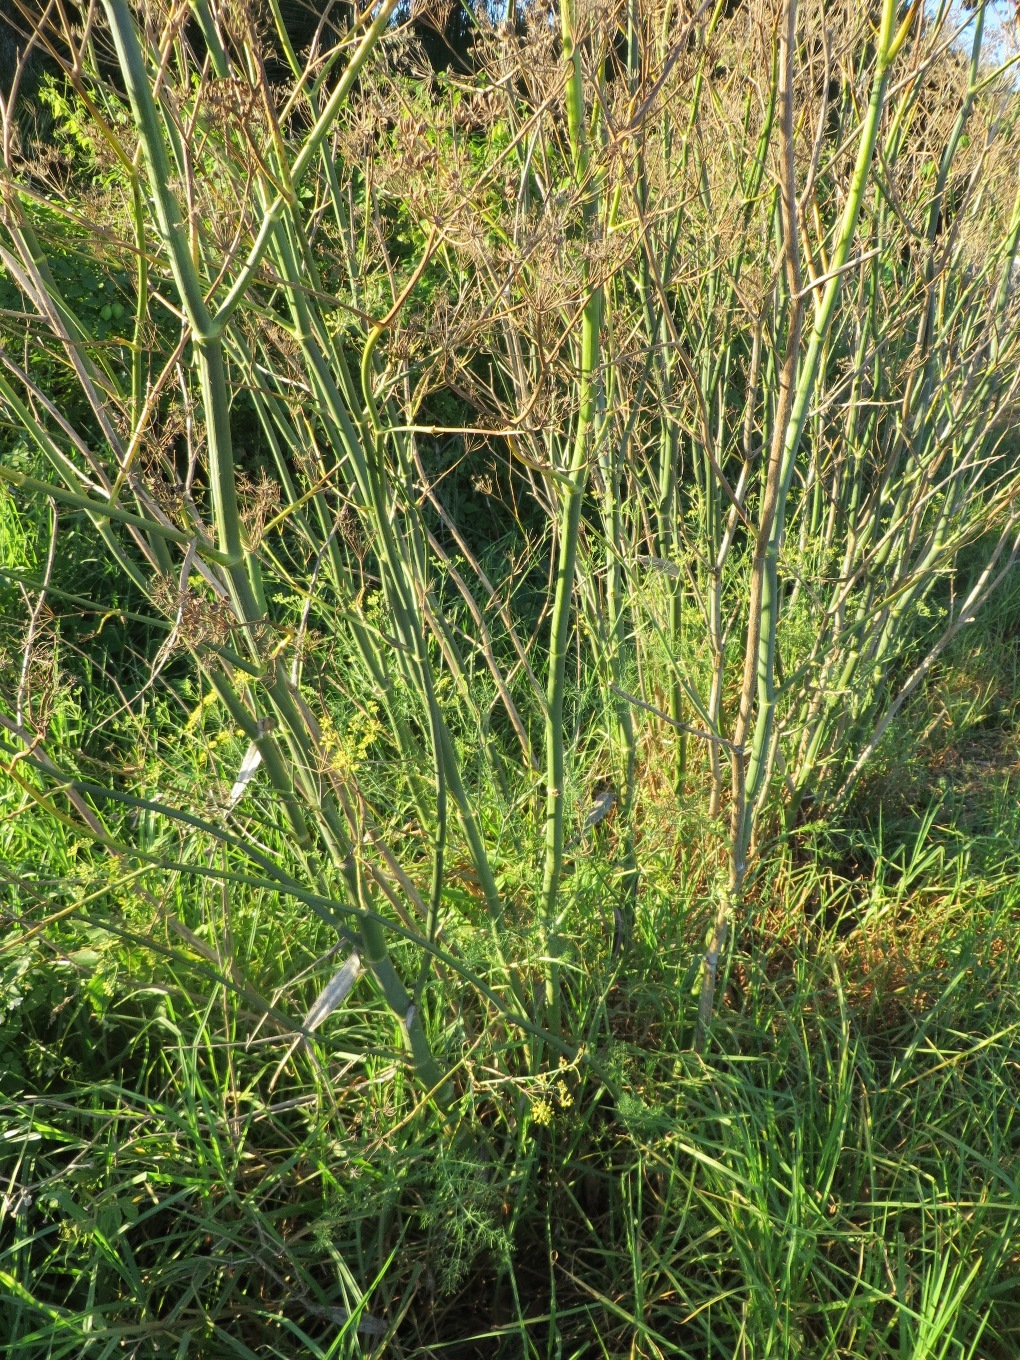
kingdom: Plantae
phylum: Tracheophyta
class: Magnoliopsida
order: Apiales
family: Apiaceae
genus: Foeniculum
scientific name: Foeniculum vulgare
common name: Fennel
